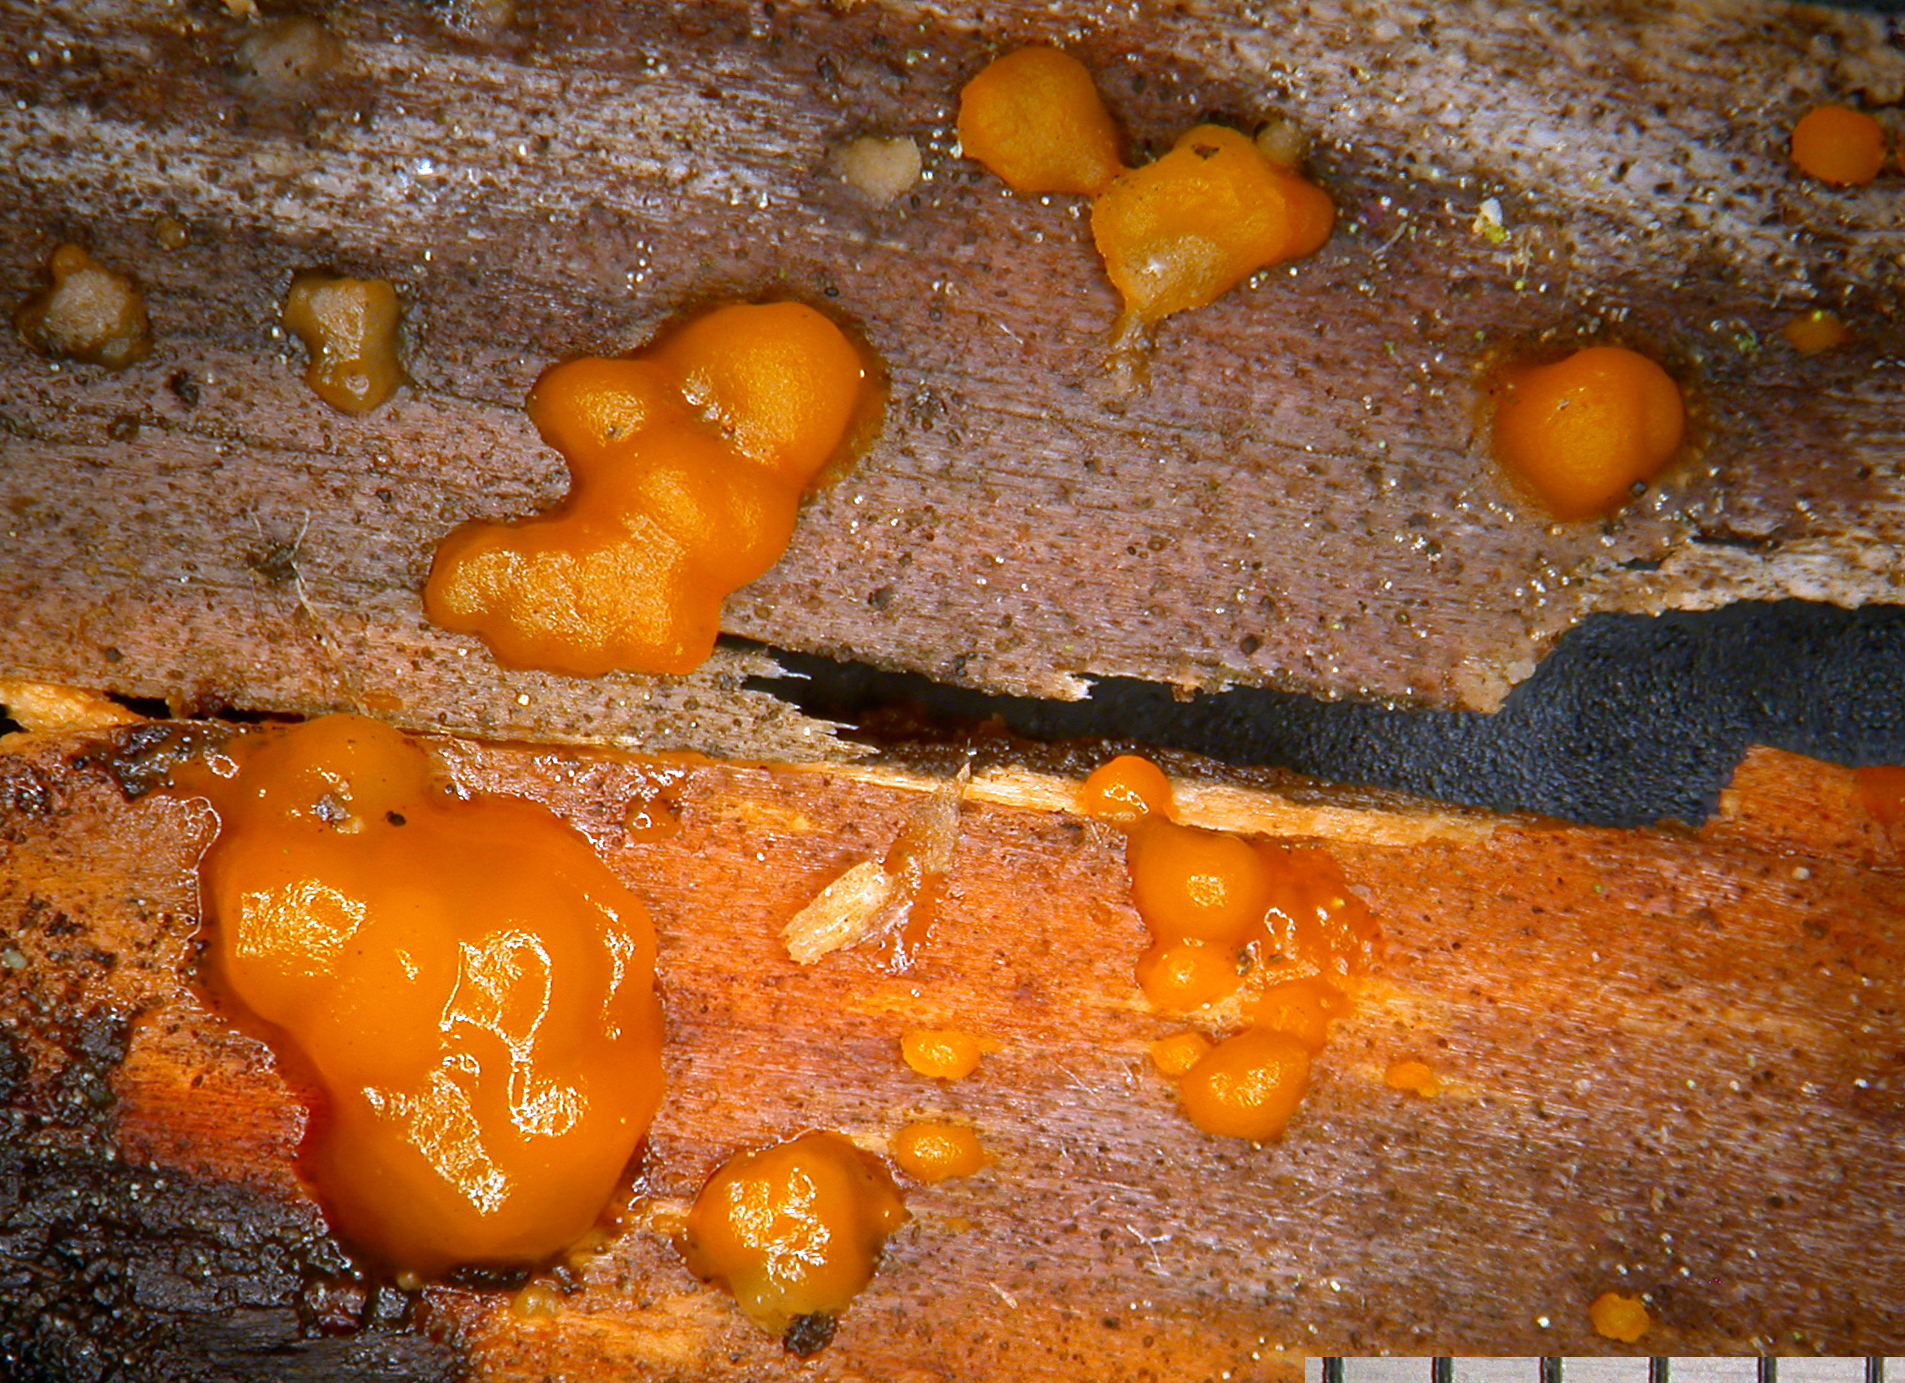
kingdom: Fungi
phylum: Basidiomycota
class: Dacrymycetes
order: Dacrymycetales
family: Dacrymycetaceae
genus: Dacrymyces
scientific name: Dacrymyces stillatus
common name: Common jelly spot
